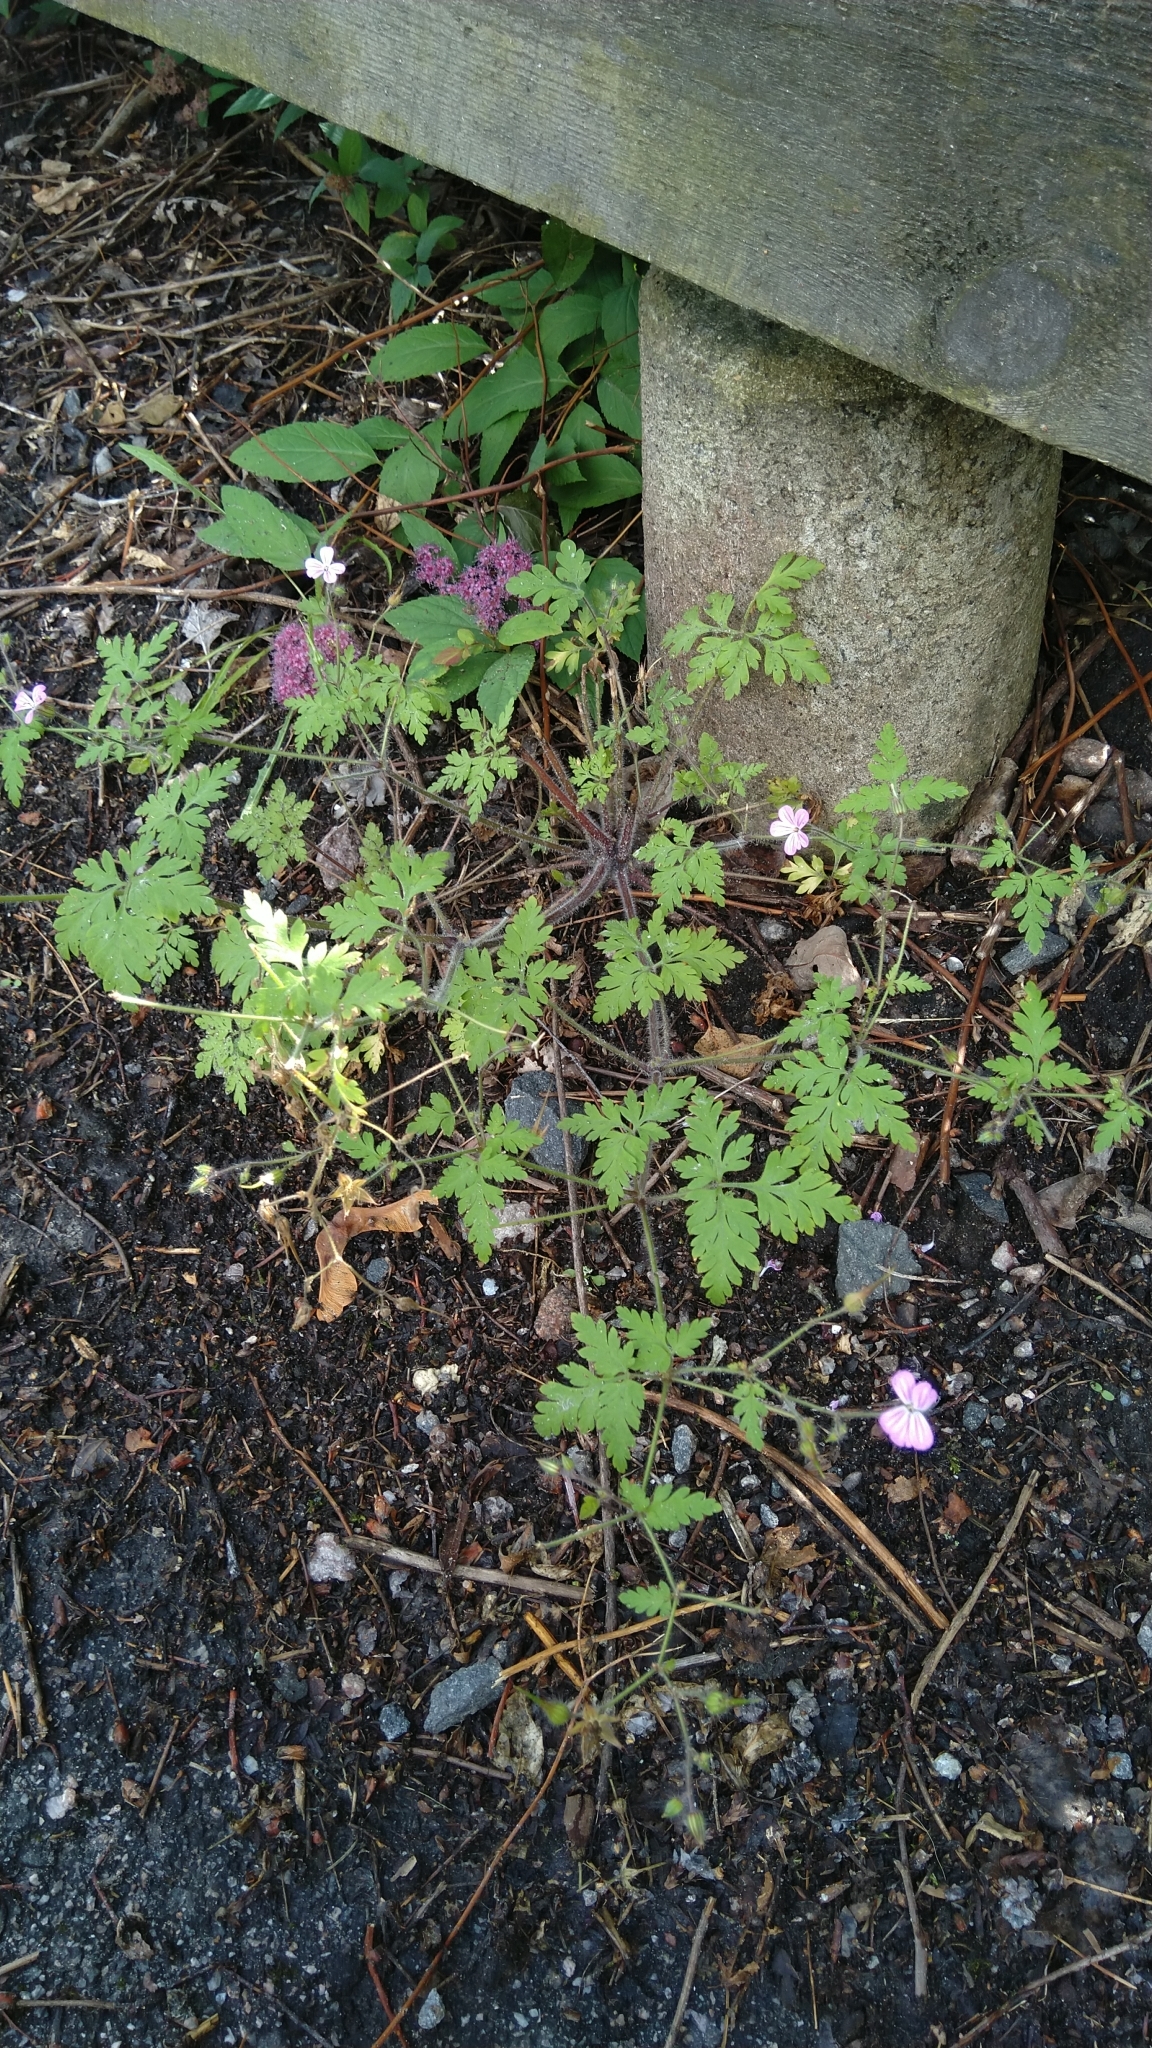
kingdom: Plantae
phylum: Tracheophyta
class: Magnoliopsida
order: Geraniales
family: Geraniaceae
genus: Geranium
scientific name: Geranium robertianum
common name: Herb-robert
